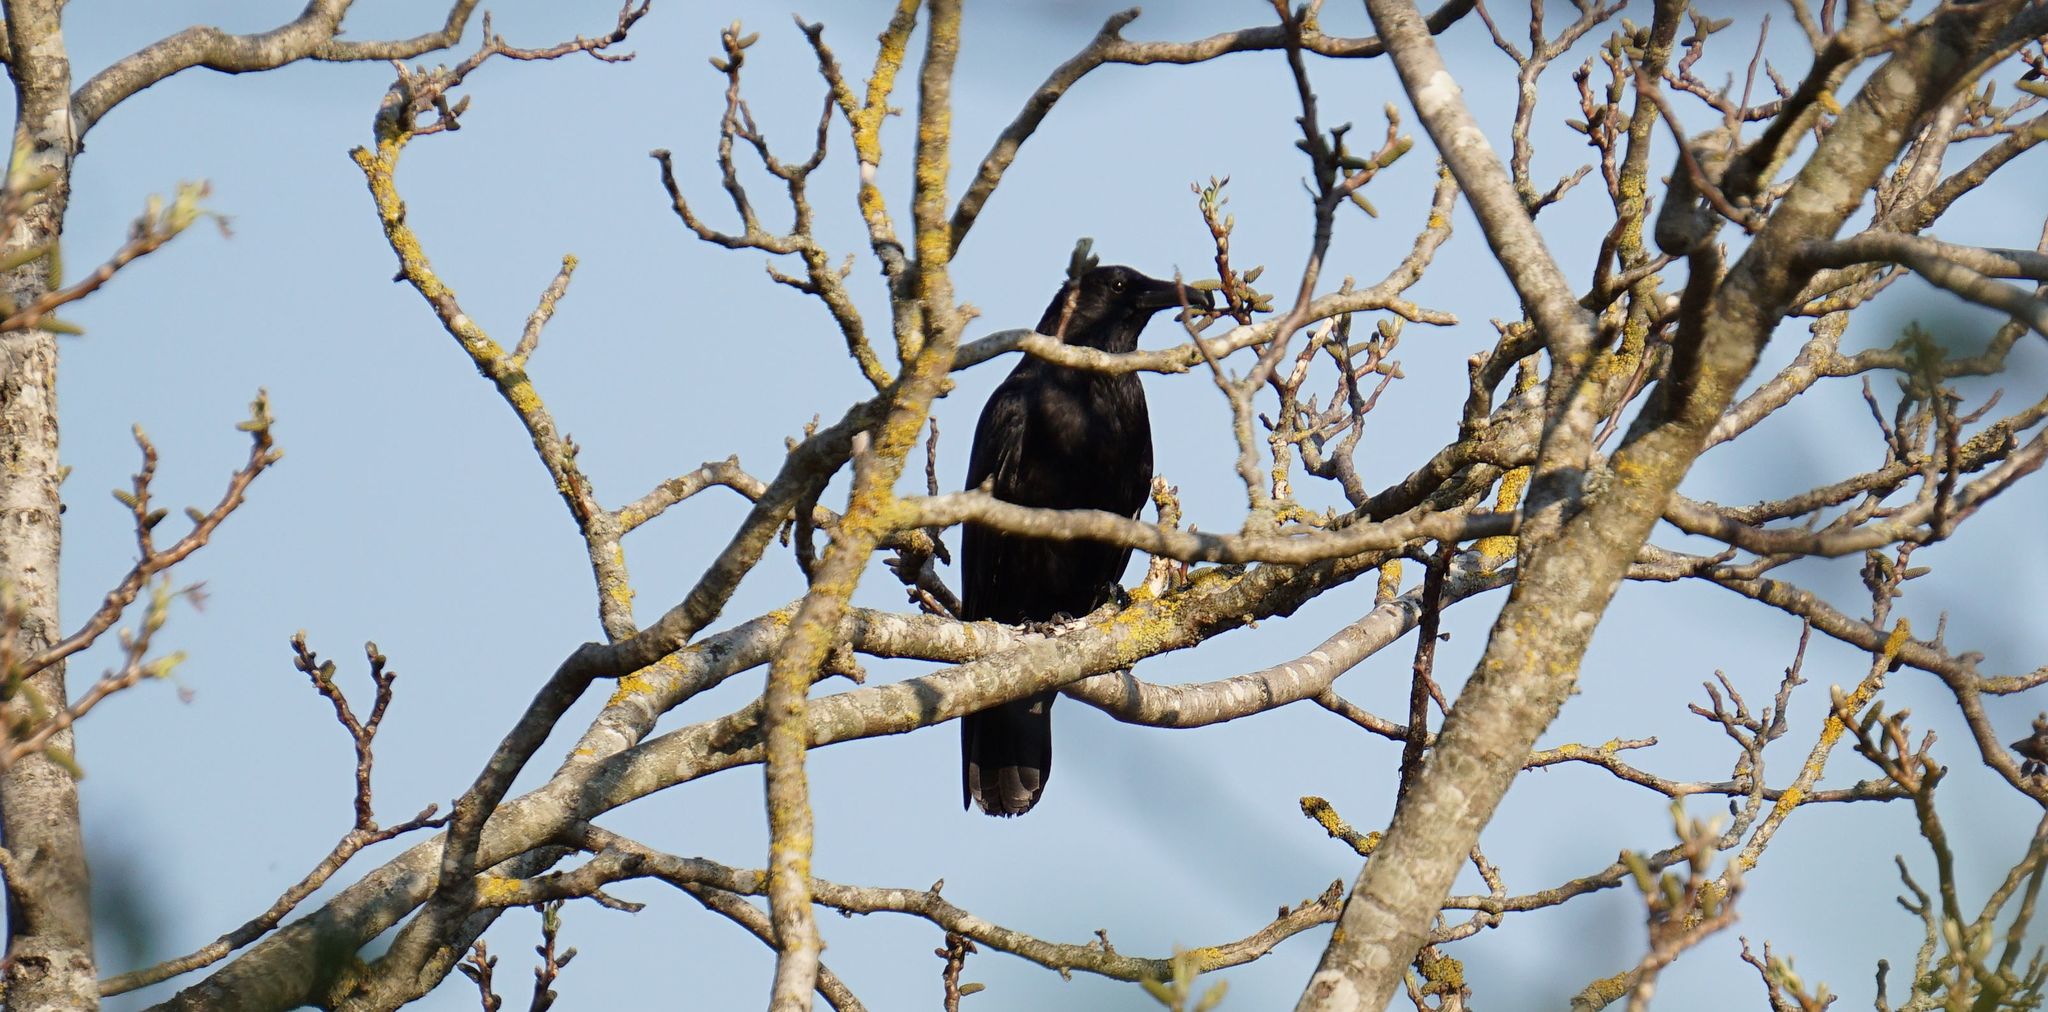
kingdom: Animalia
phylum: Chordata
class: Aves
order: Passeriformes
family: Corvidae
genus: Corvus
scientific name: Corvus corone
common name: Carrion crow
